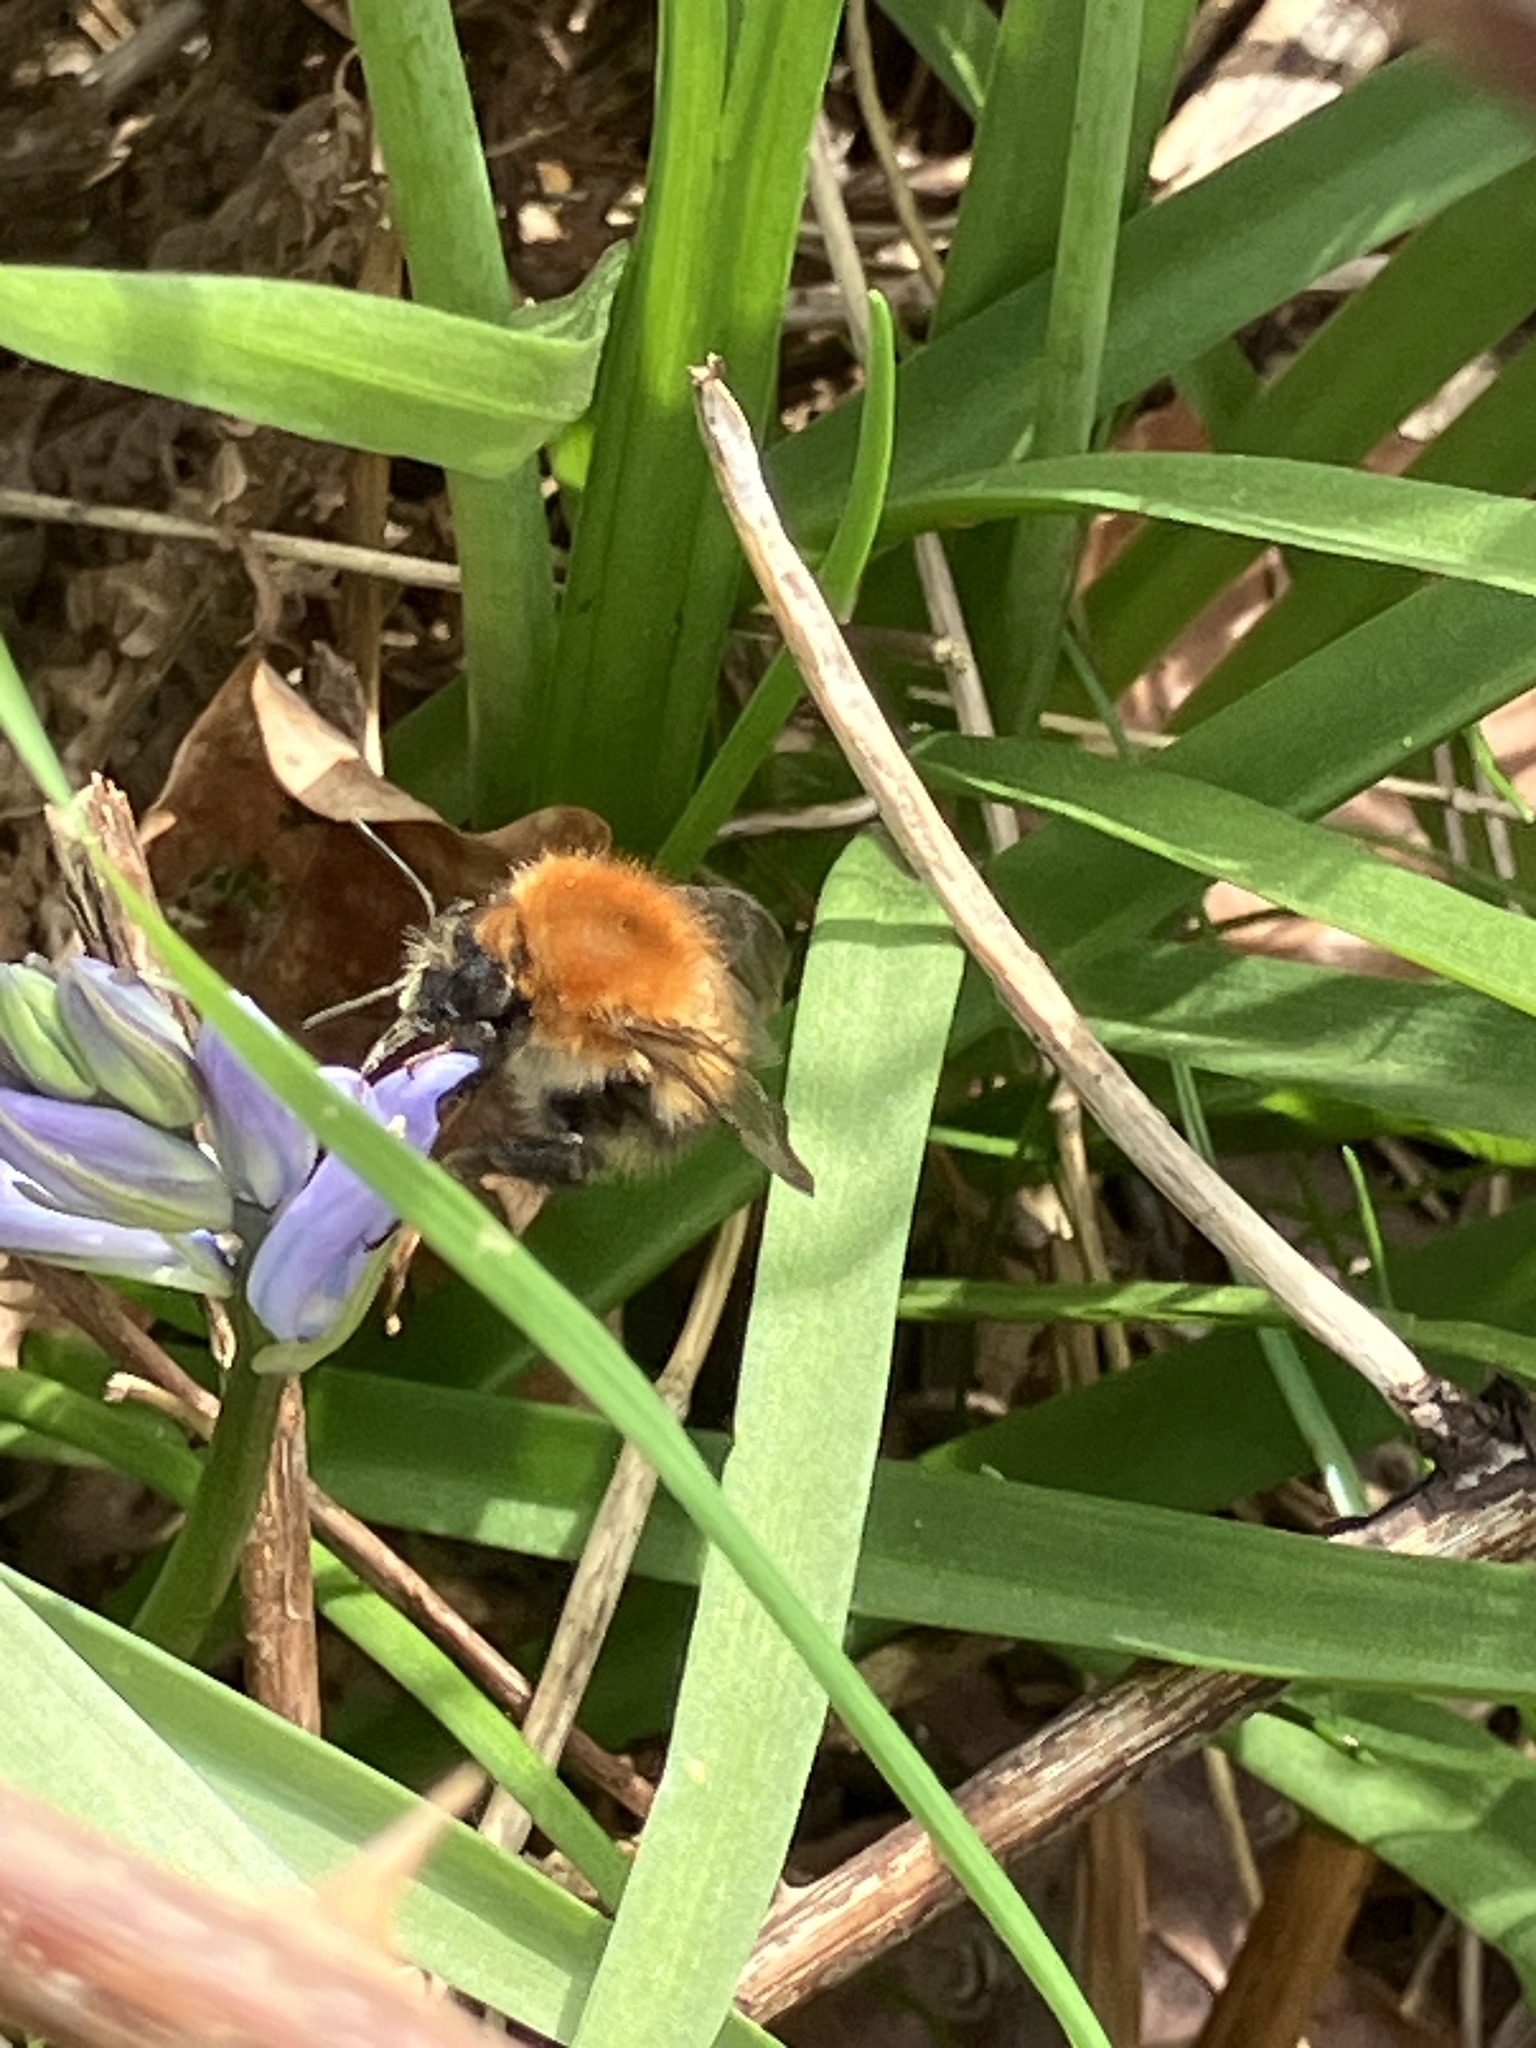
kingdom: Animalia
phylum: Arthropoda
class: Insecta
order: Hymenoptera
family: Apidae
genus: Bombus
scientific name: Bombus pascuorum
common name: Common carder bee
